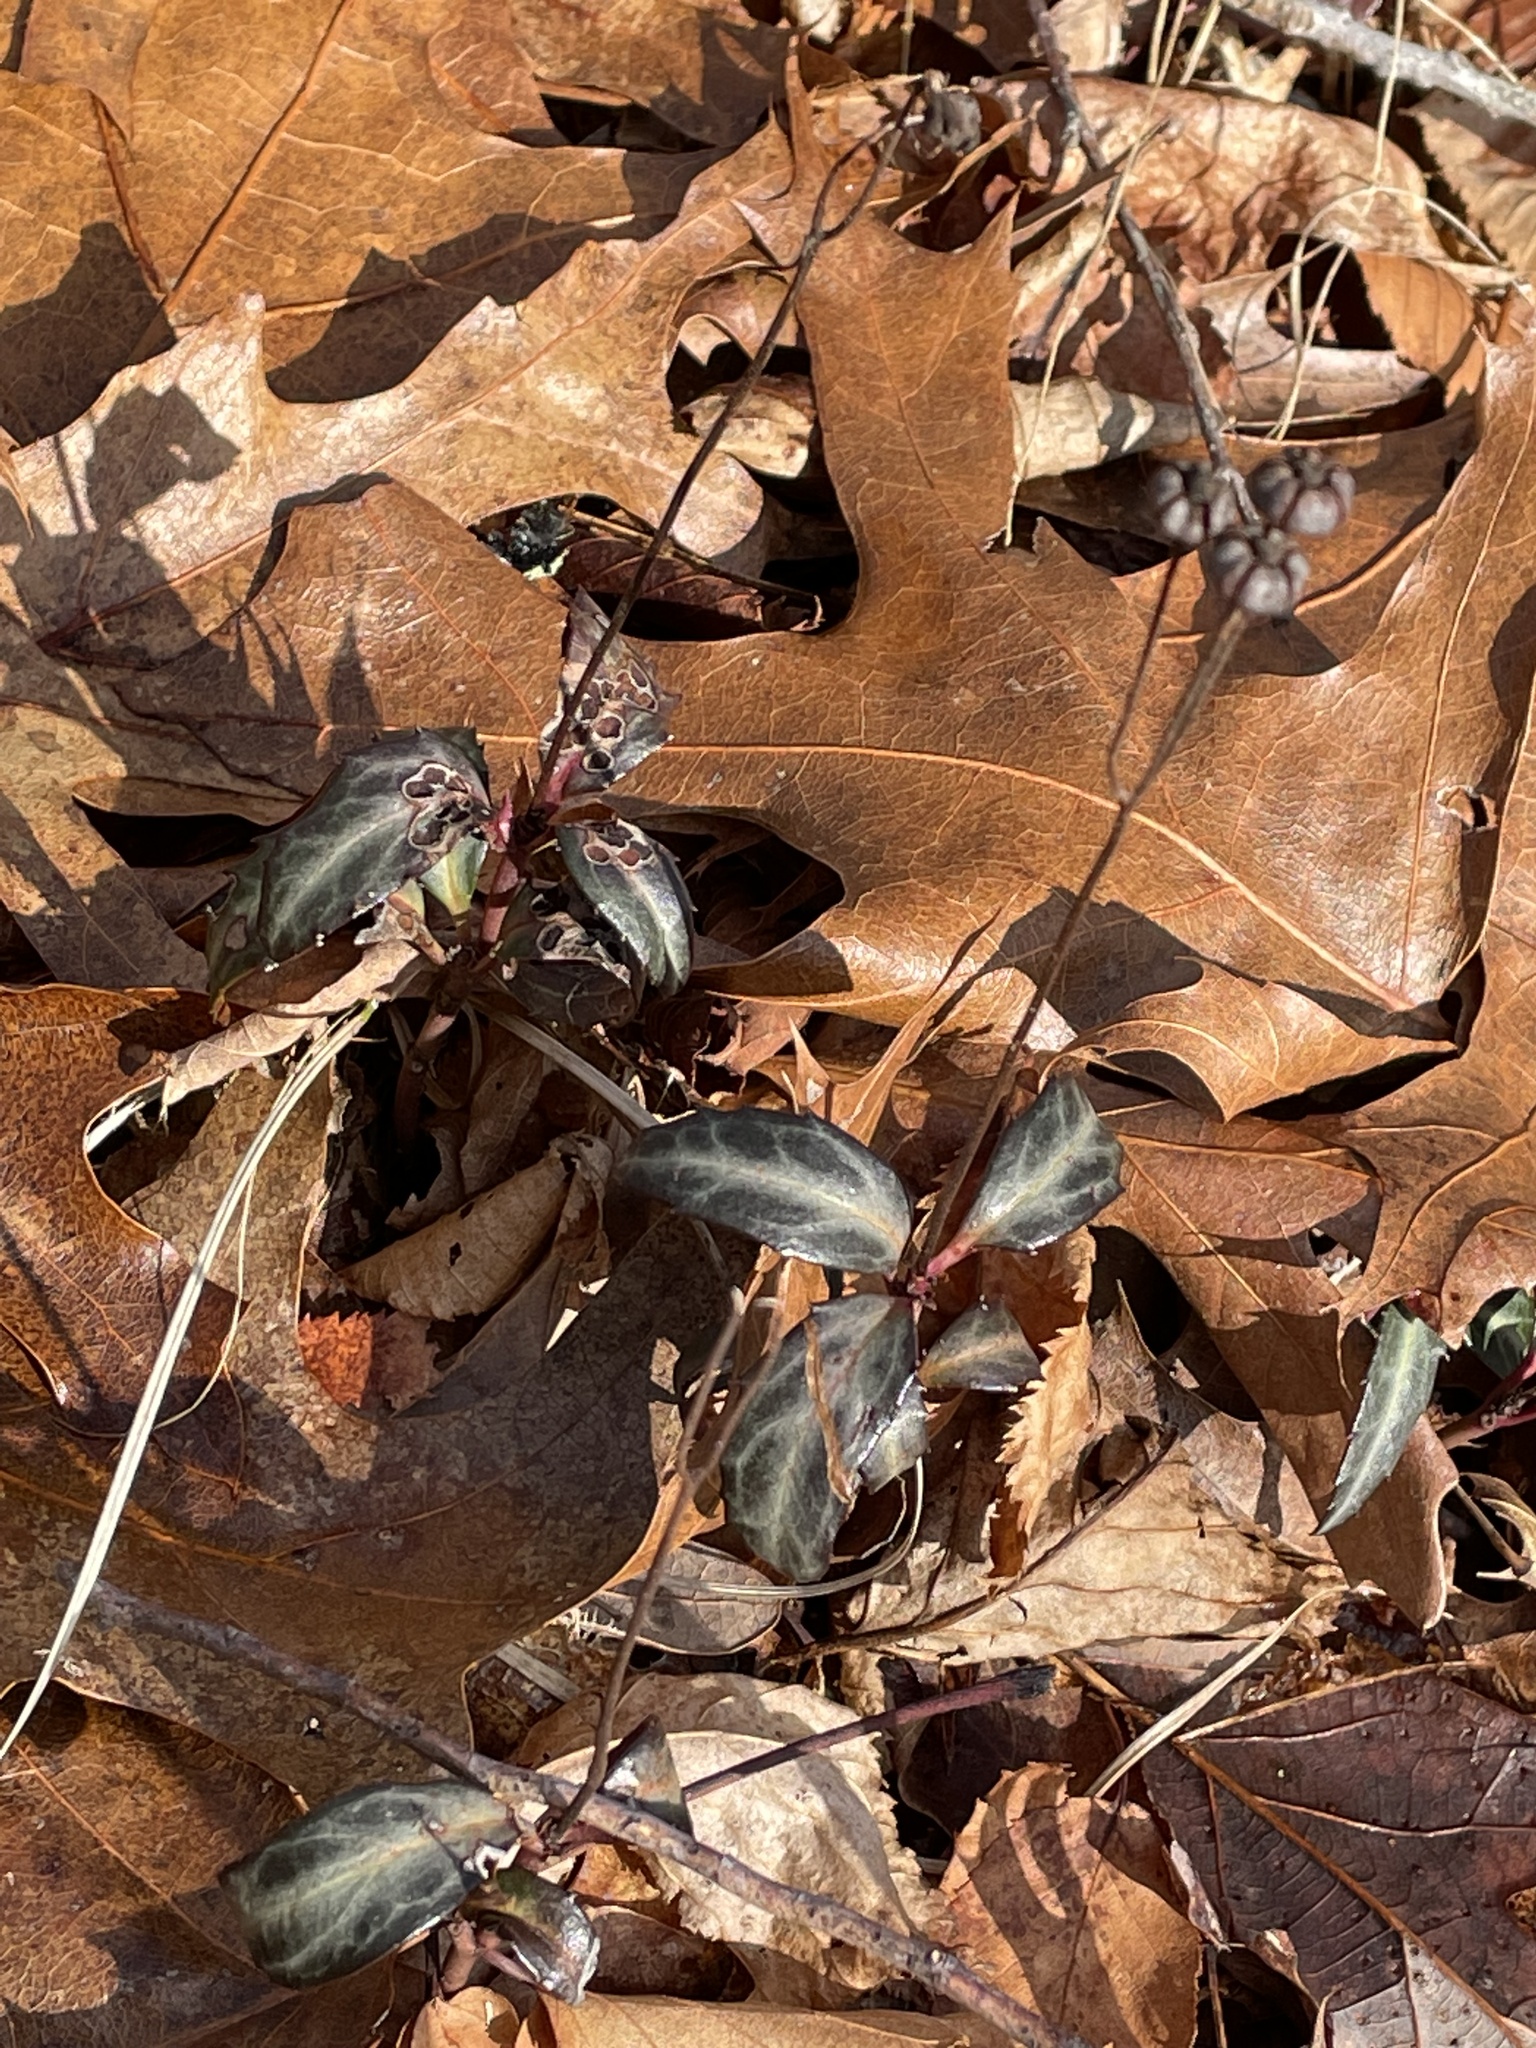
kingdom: Plantae
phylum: Tracheophyta
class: Magnoliopsida
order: Ericales
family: Ericaceae
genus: Chimaphila
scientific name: Chimaphila maculata
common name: Spotted pipsissewa
